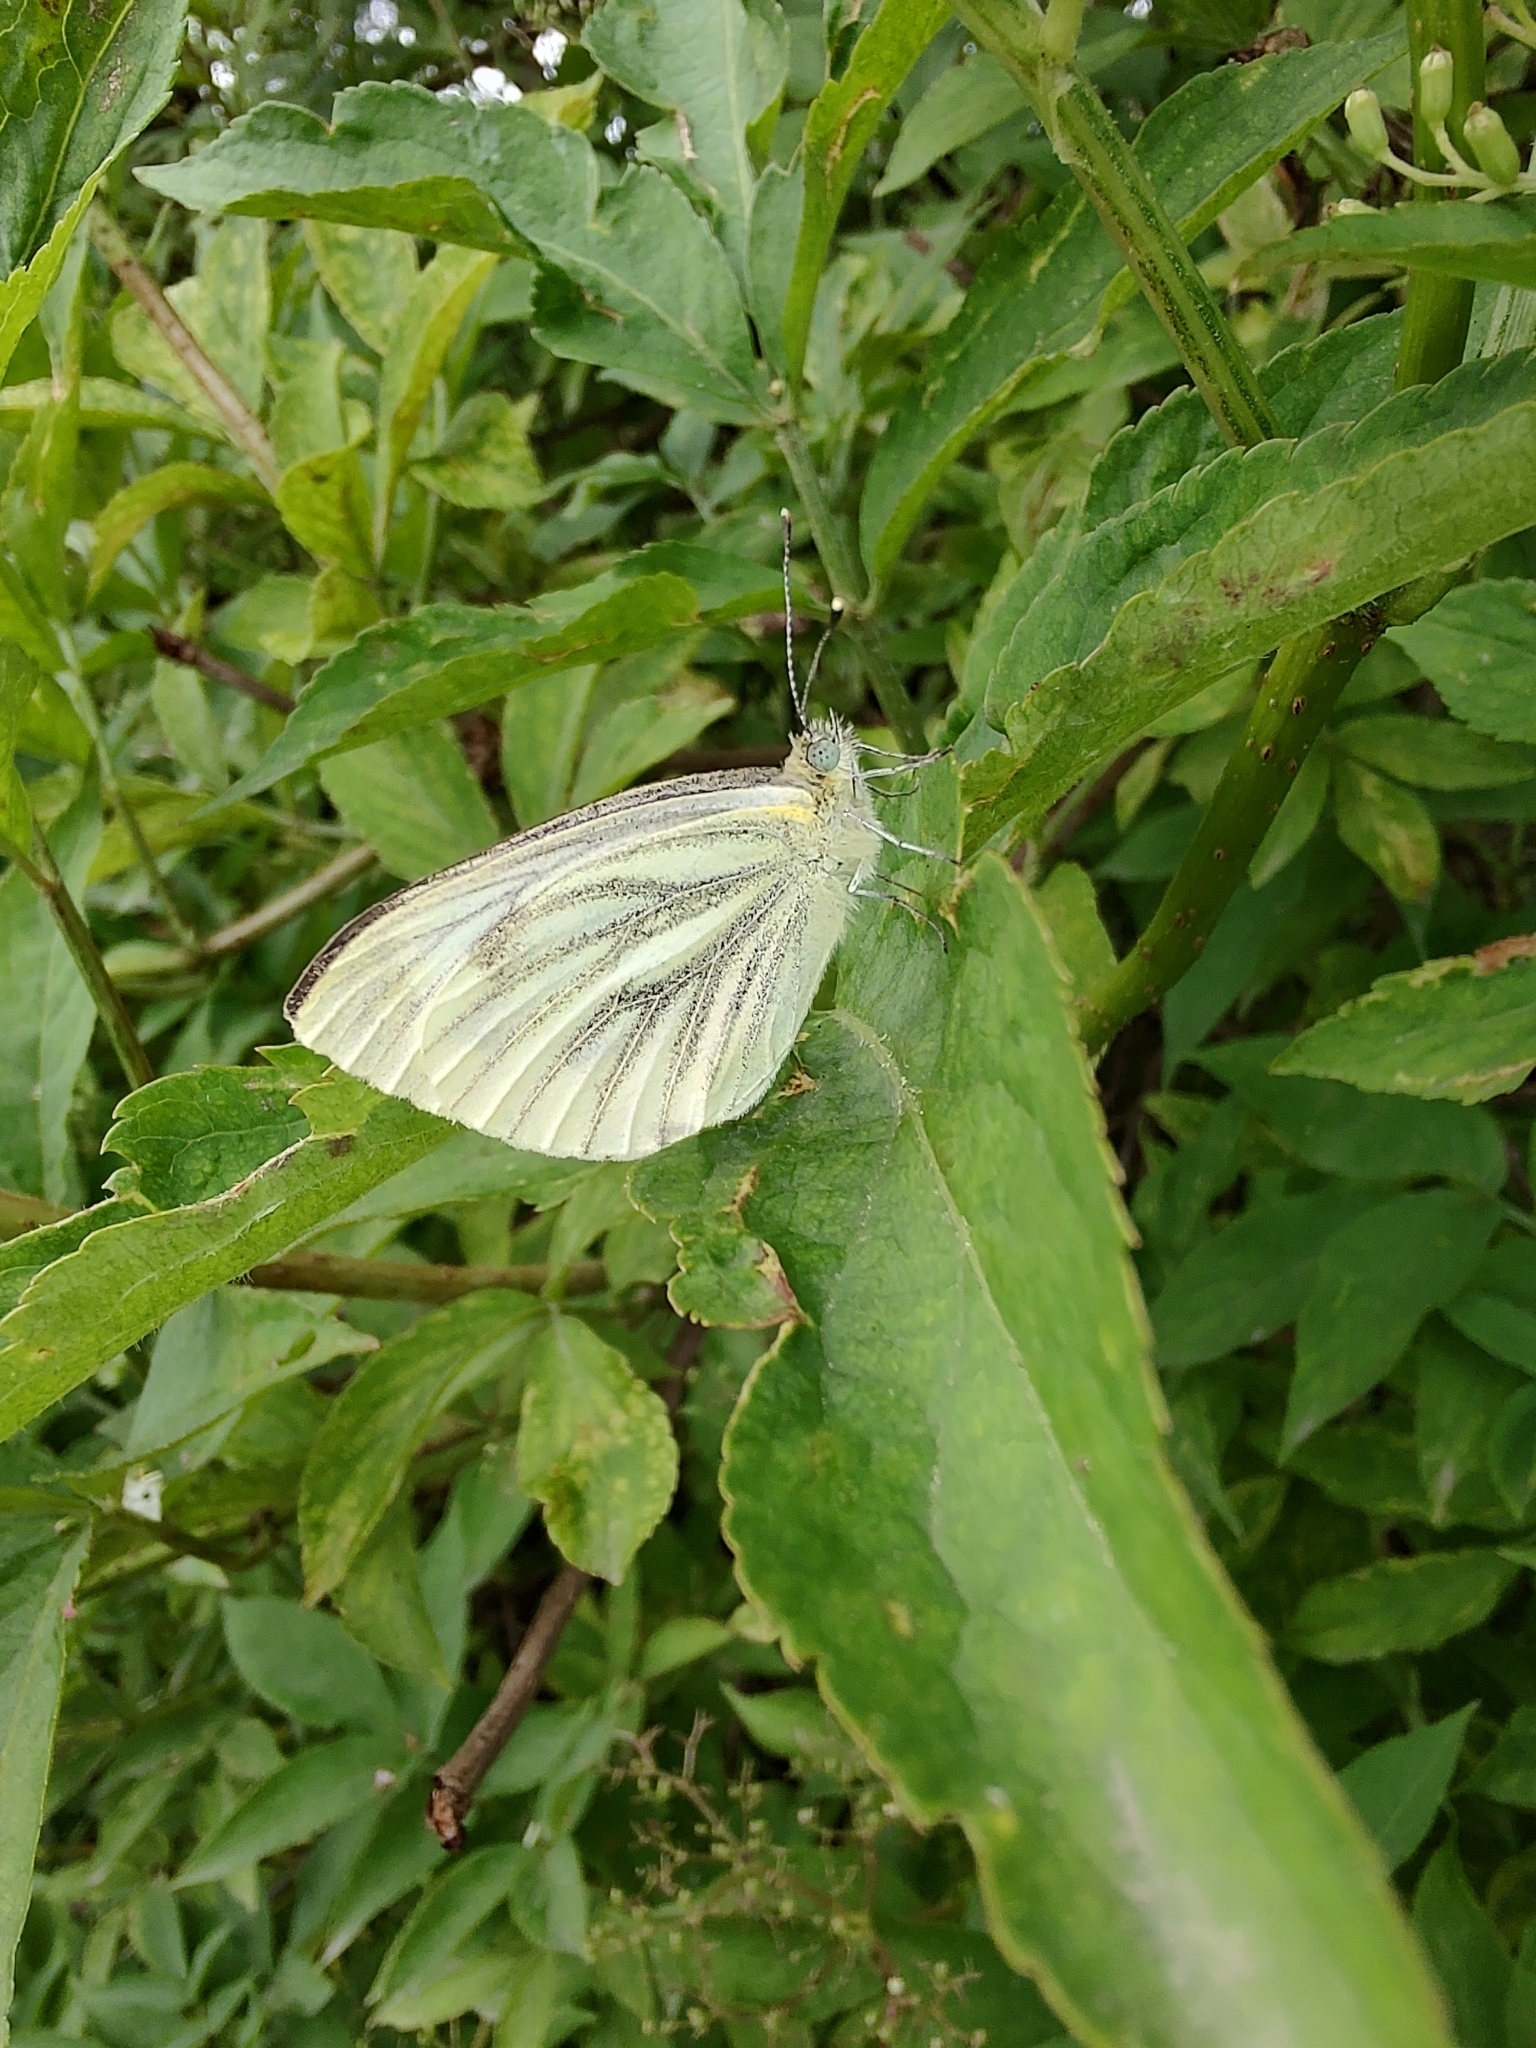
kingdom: Animalia
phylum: Arthropoda
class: Insecta
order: Lepidoptera
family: Pieridae
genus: Pieris
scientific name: Pieris napi
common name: Green-veined white
